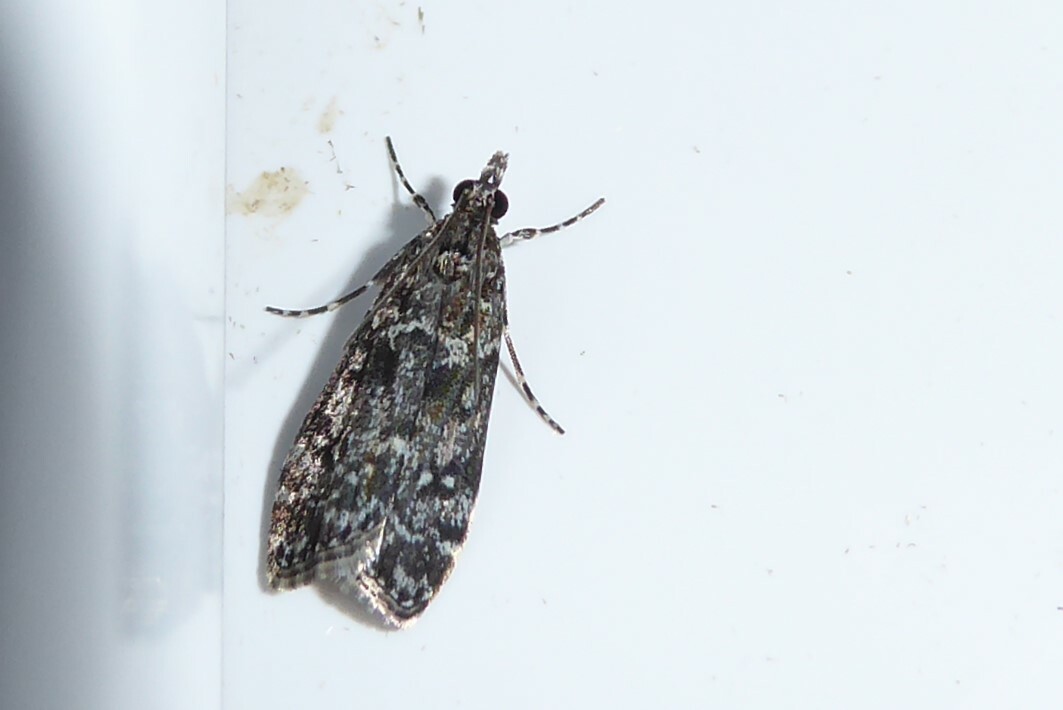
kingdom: Animalia
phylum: Arthropoda
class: Insecta
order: Lepidoptera
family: Crambidae
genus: Eudonia
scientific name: Eudonia philerga
